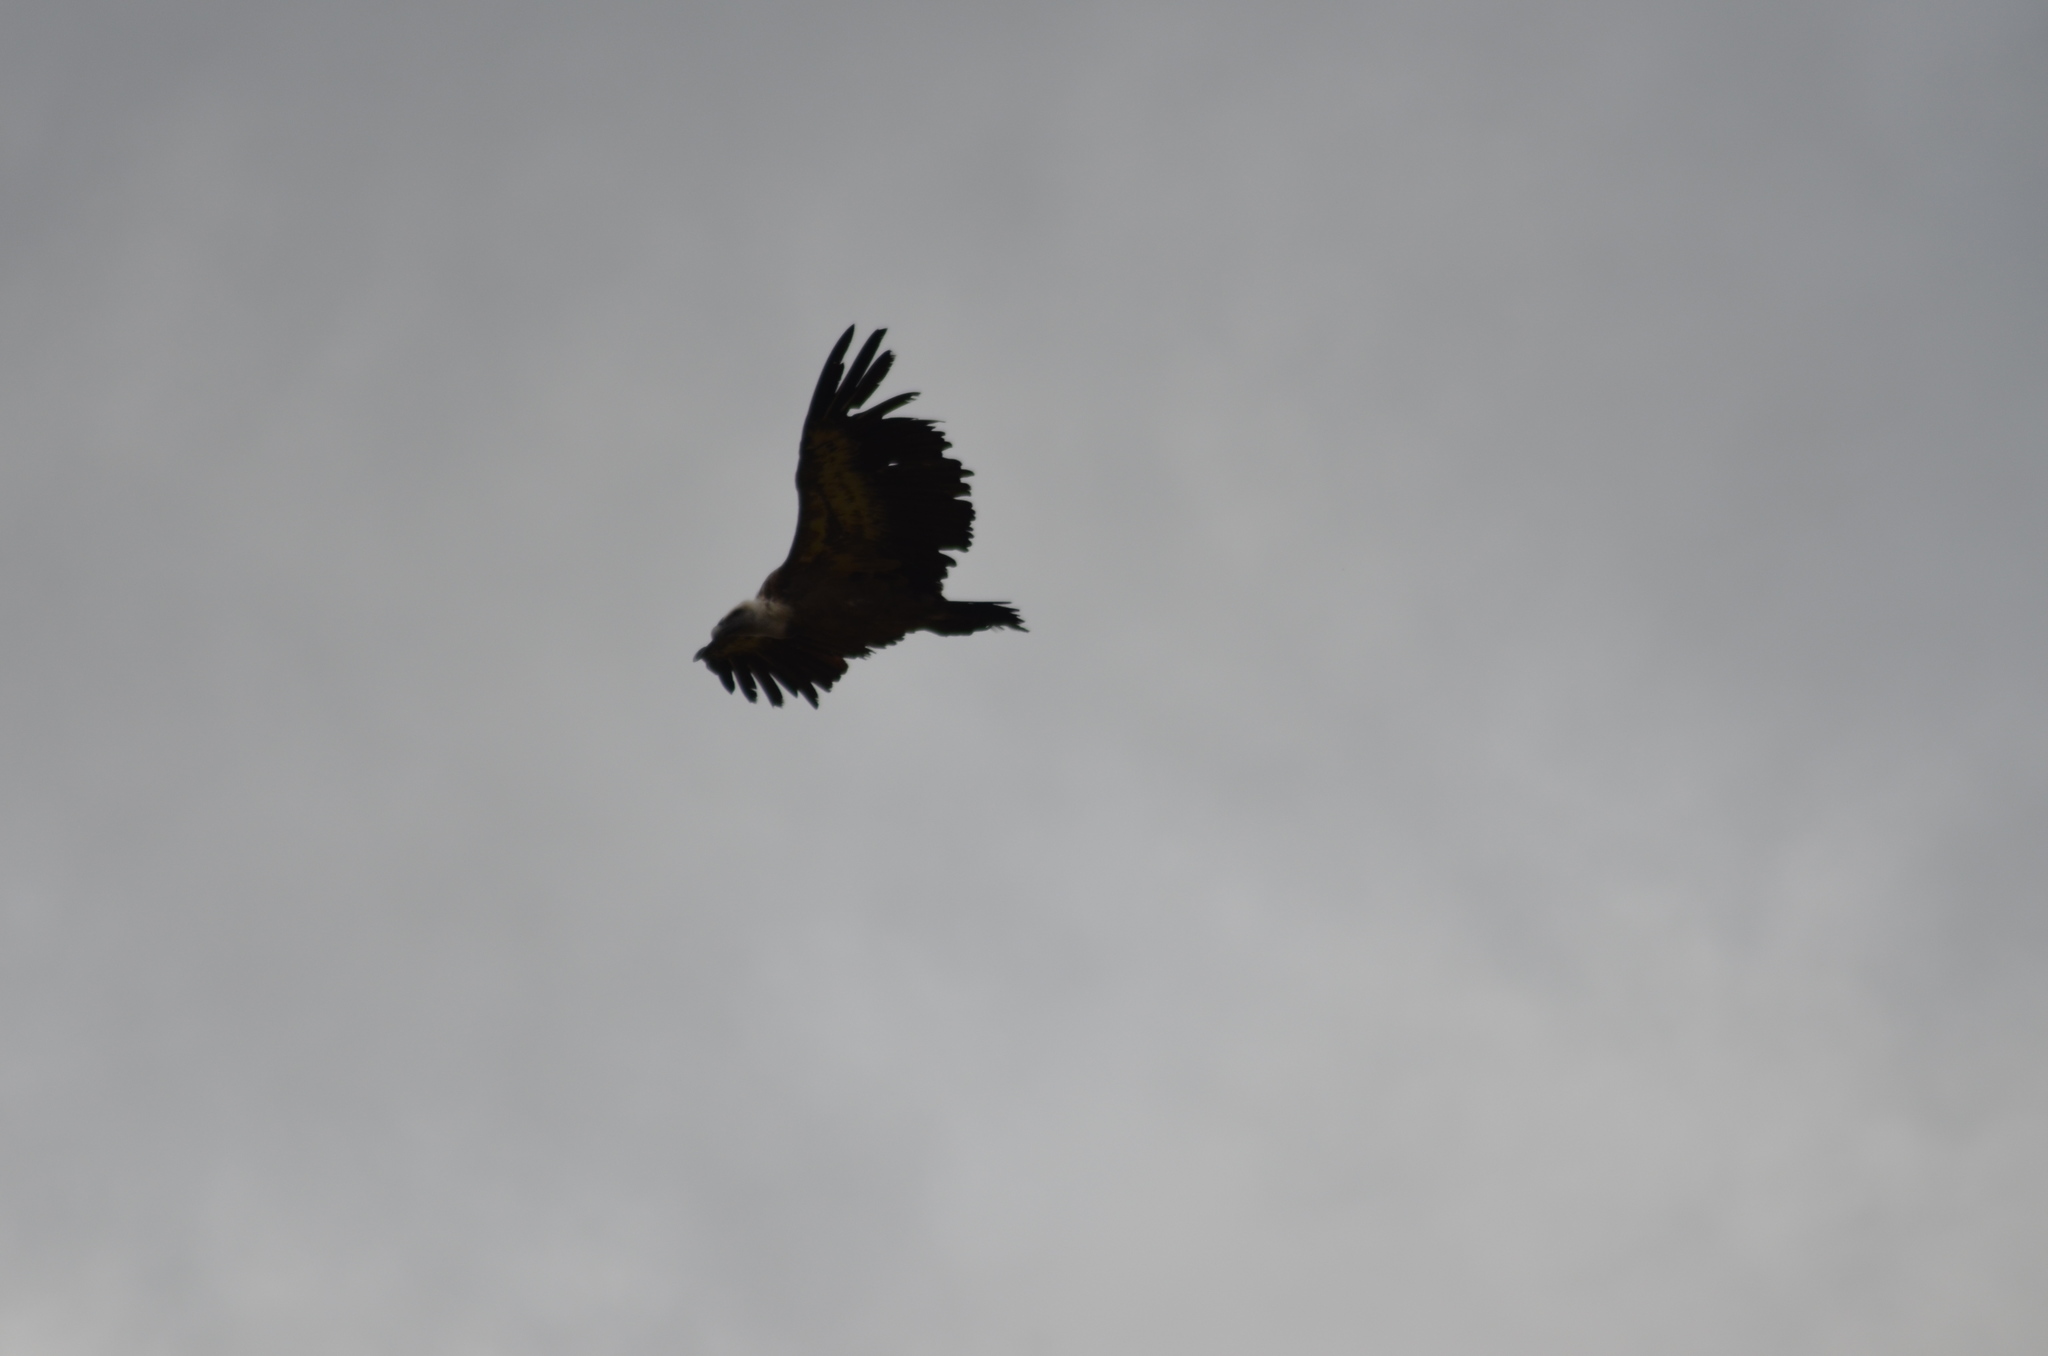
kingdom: Animalia
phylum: Chordata
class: Aves
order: Accipitriformes
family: Accipitridae
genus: Gyps
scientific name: Gyps fulvus
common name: Griffon vulture
